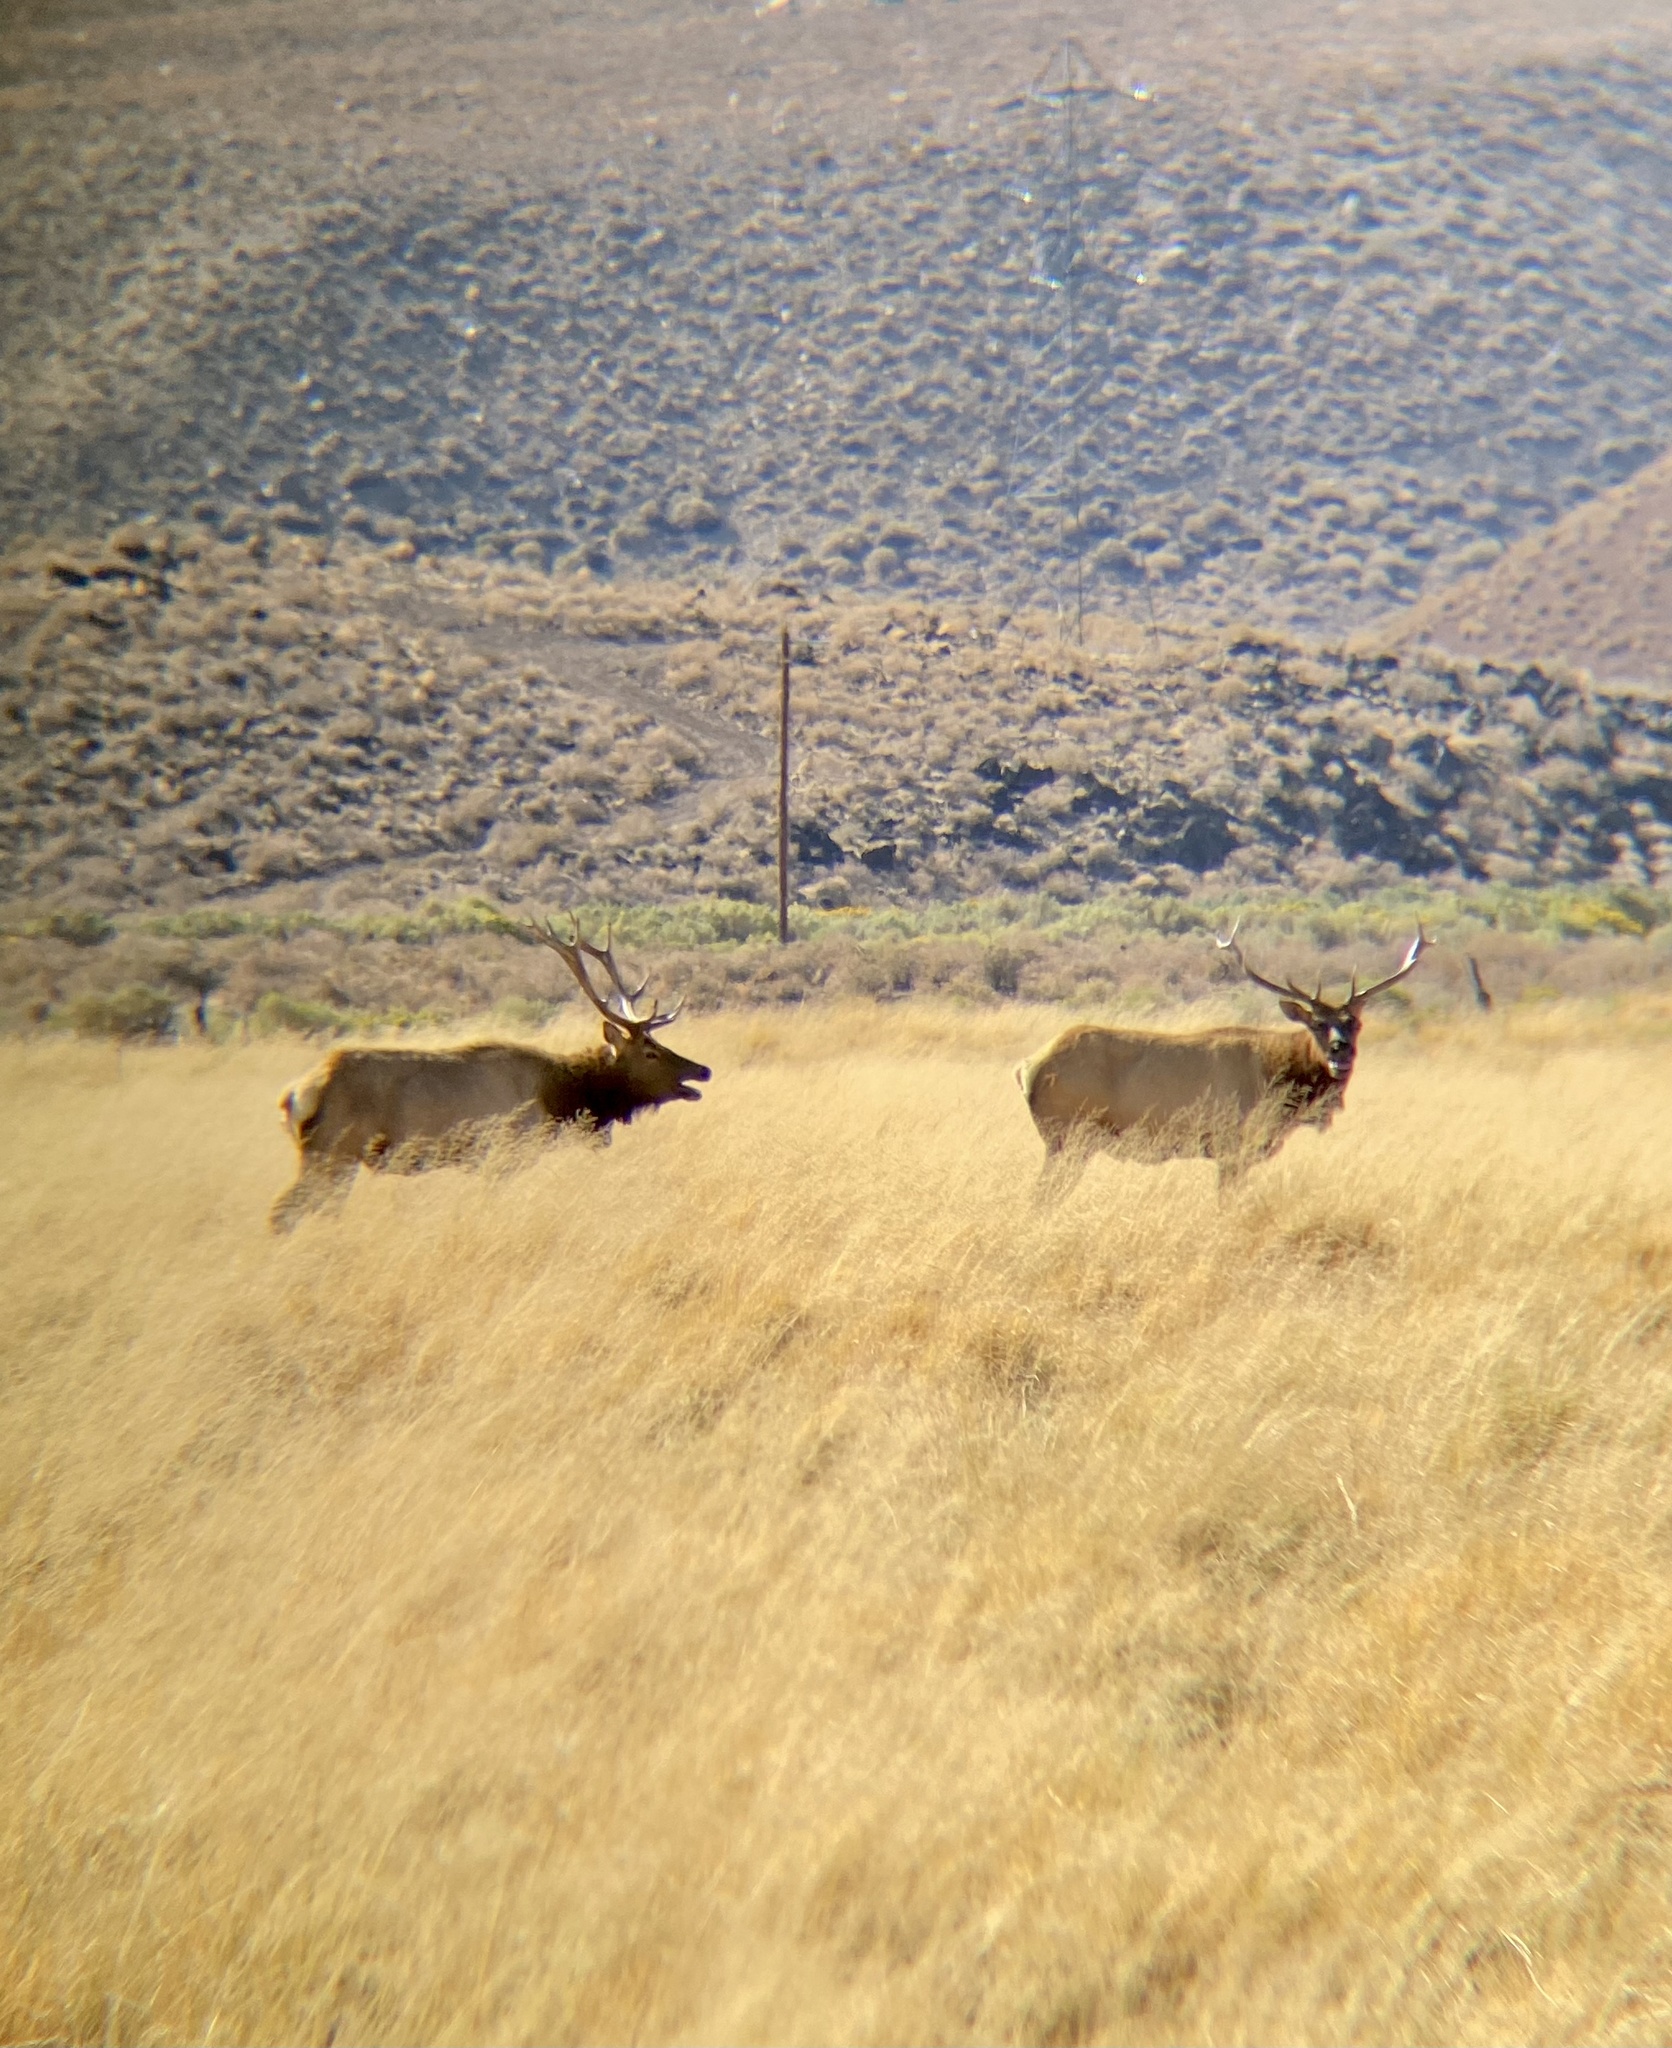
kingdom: Animalia
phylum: Chordata
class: Mammalia
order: Artiodactyla
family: Cervidae
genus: Cervus
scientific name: Cervus elaphus
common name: Red deer
